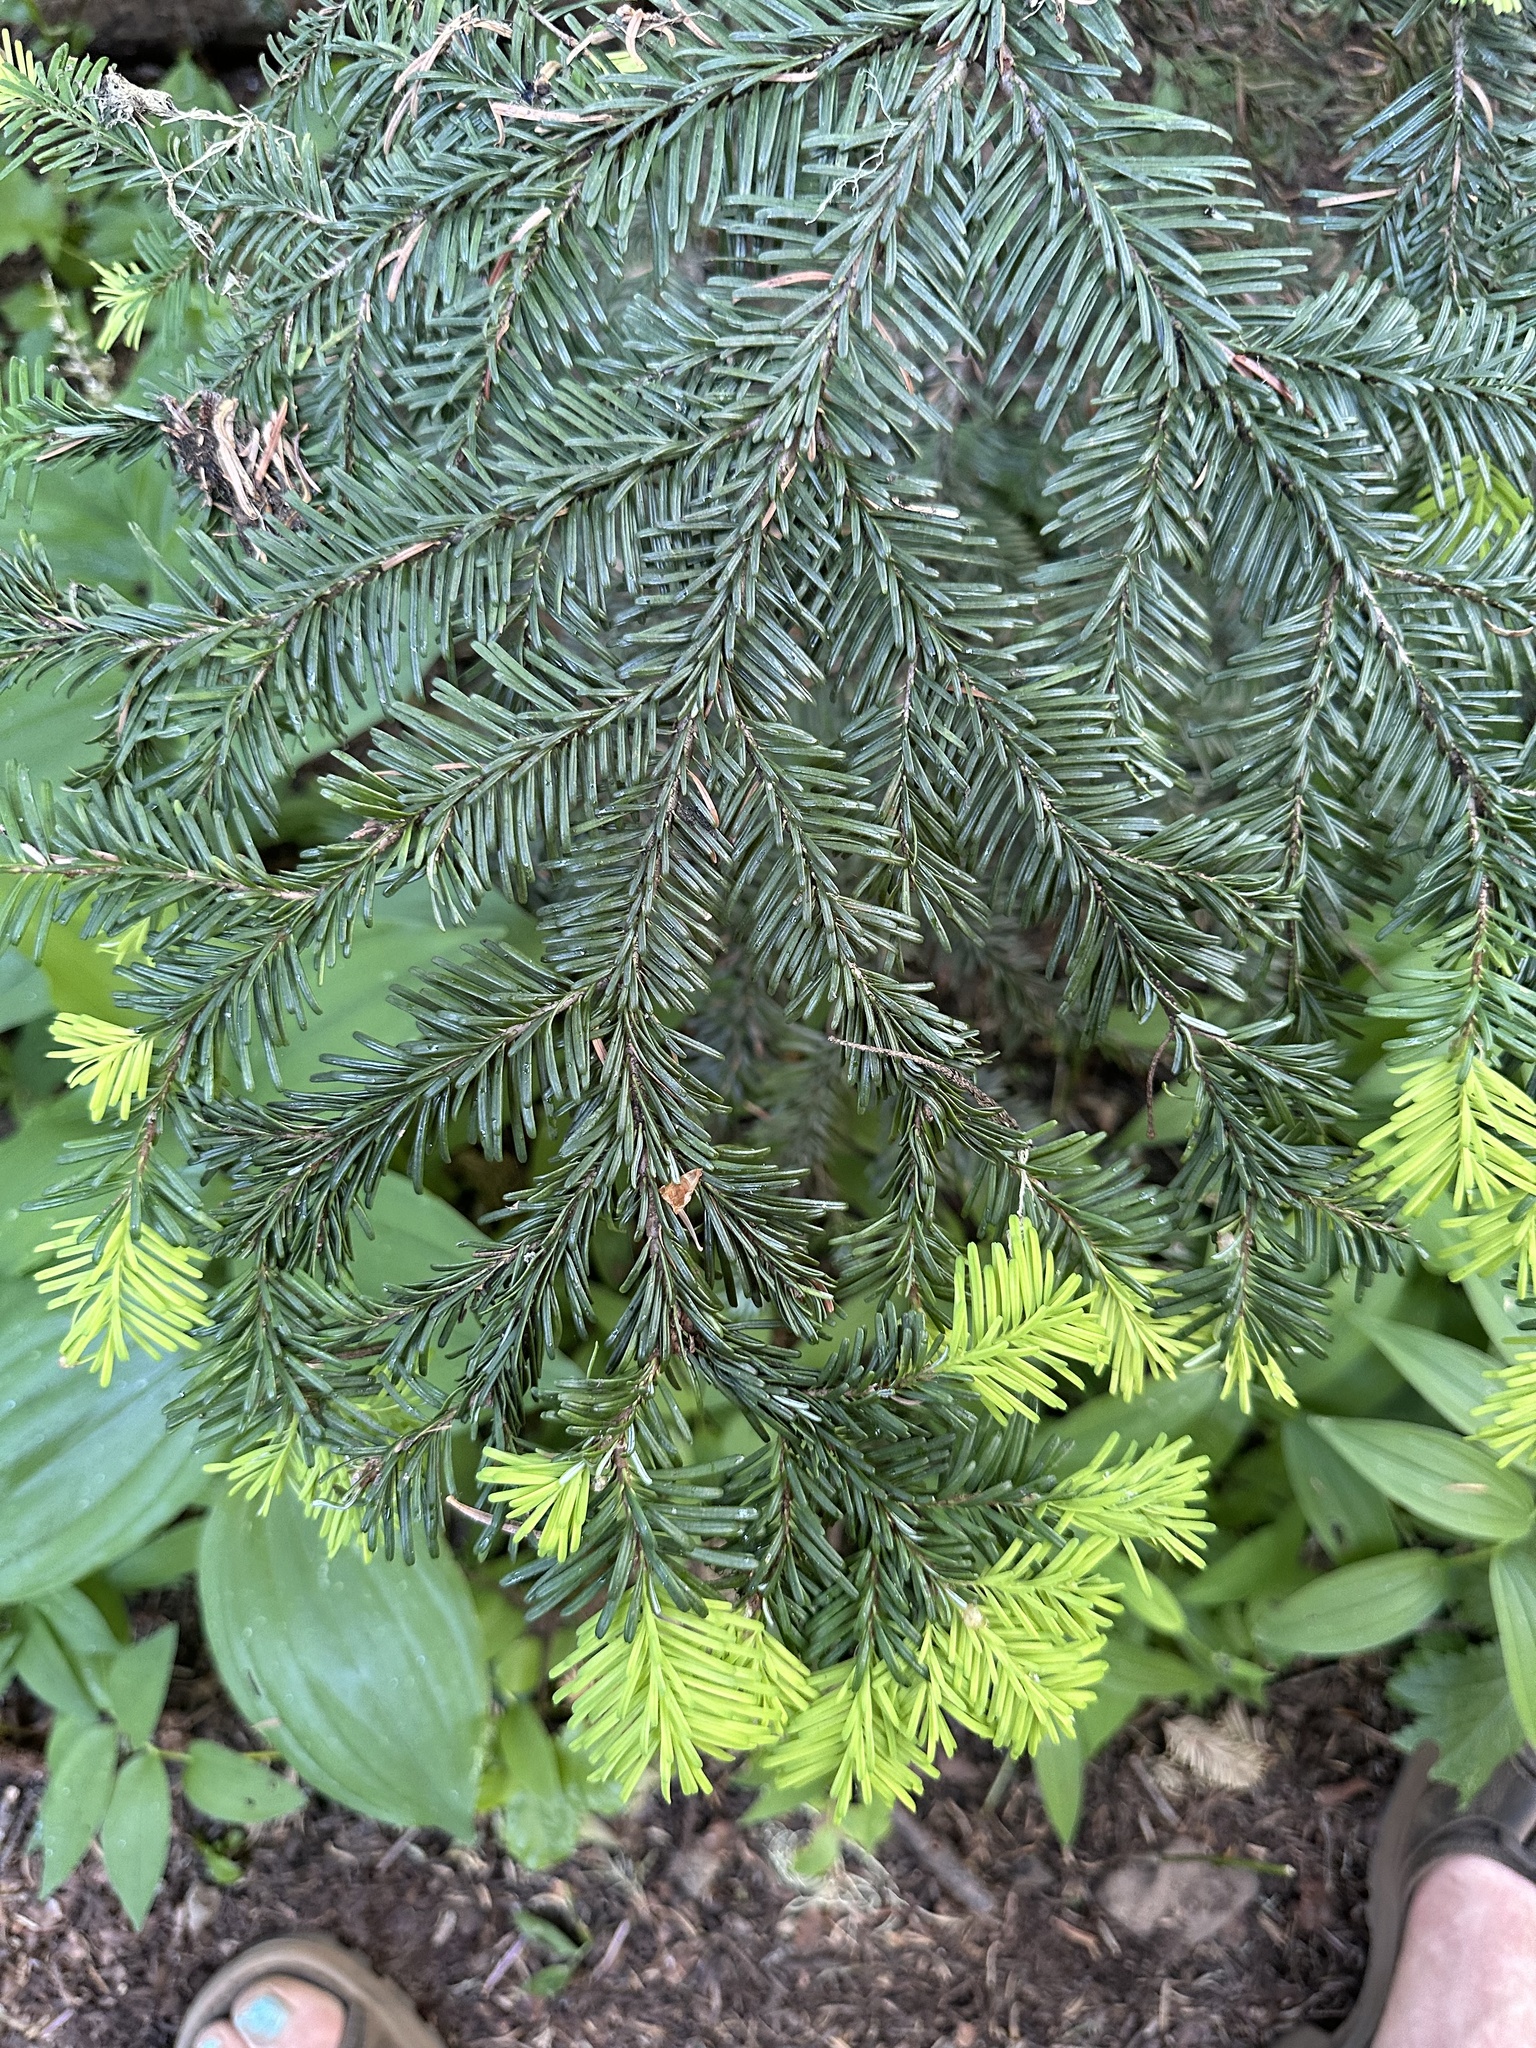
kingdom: Plantae
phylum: Tracheophyta
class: Pinopsida
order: Pinales
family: Pinaceae
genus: Abies
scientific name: Abies amabilis
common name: Pacific silver fir
